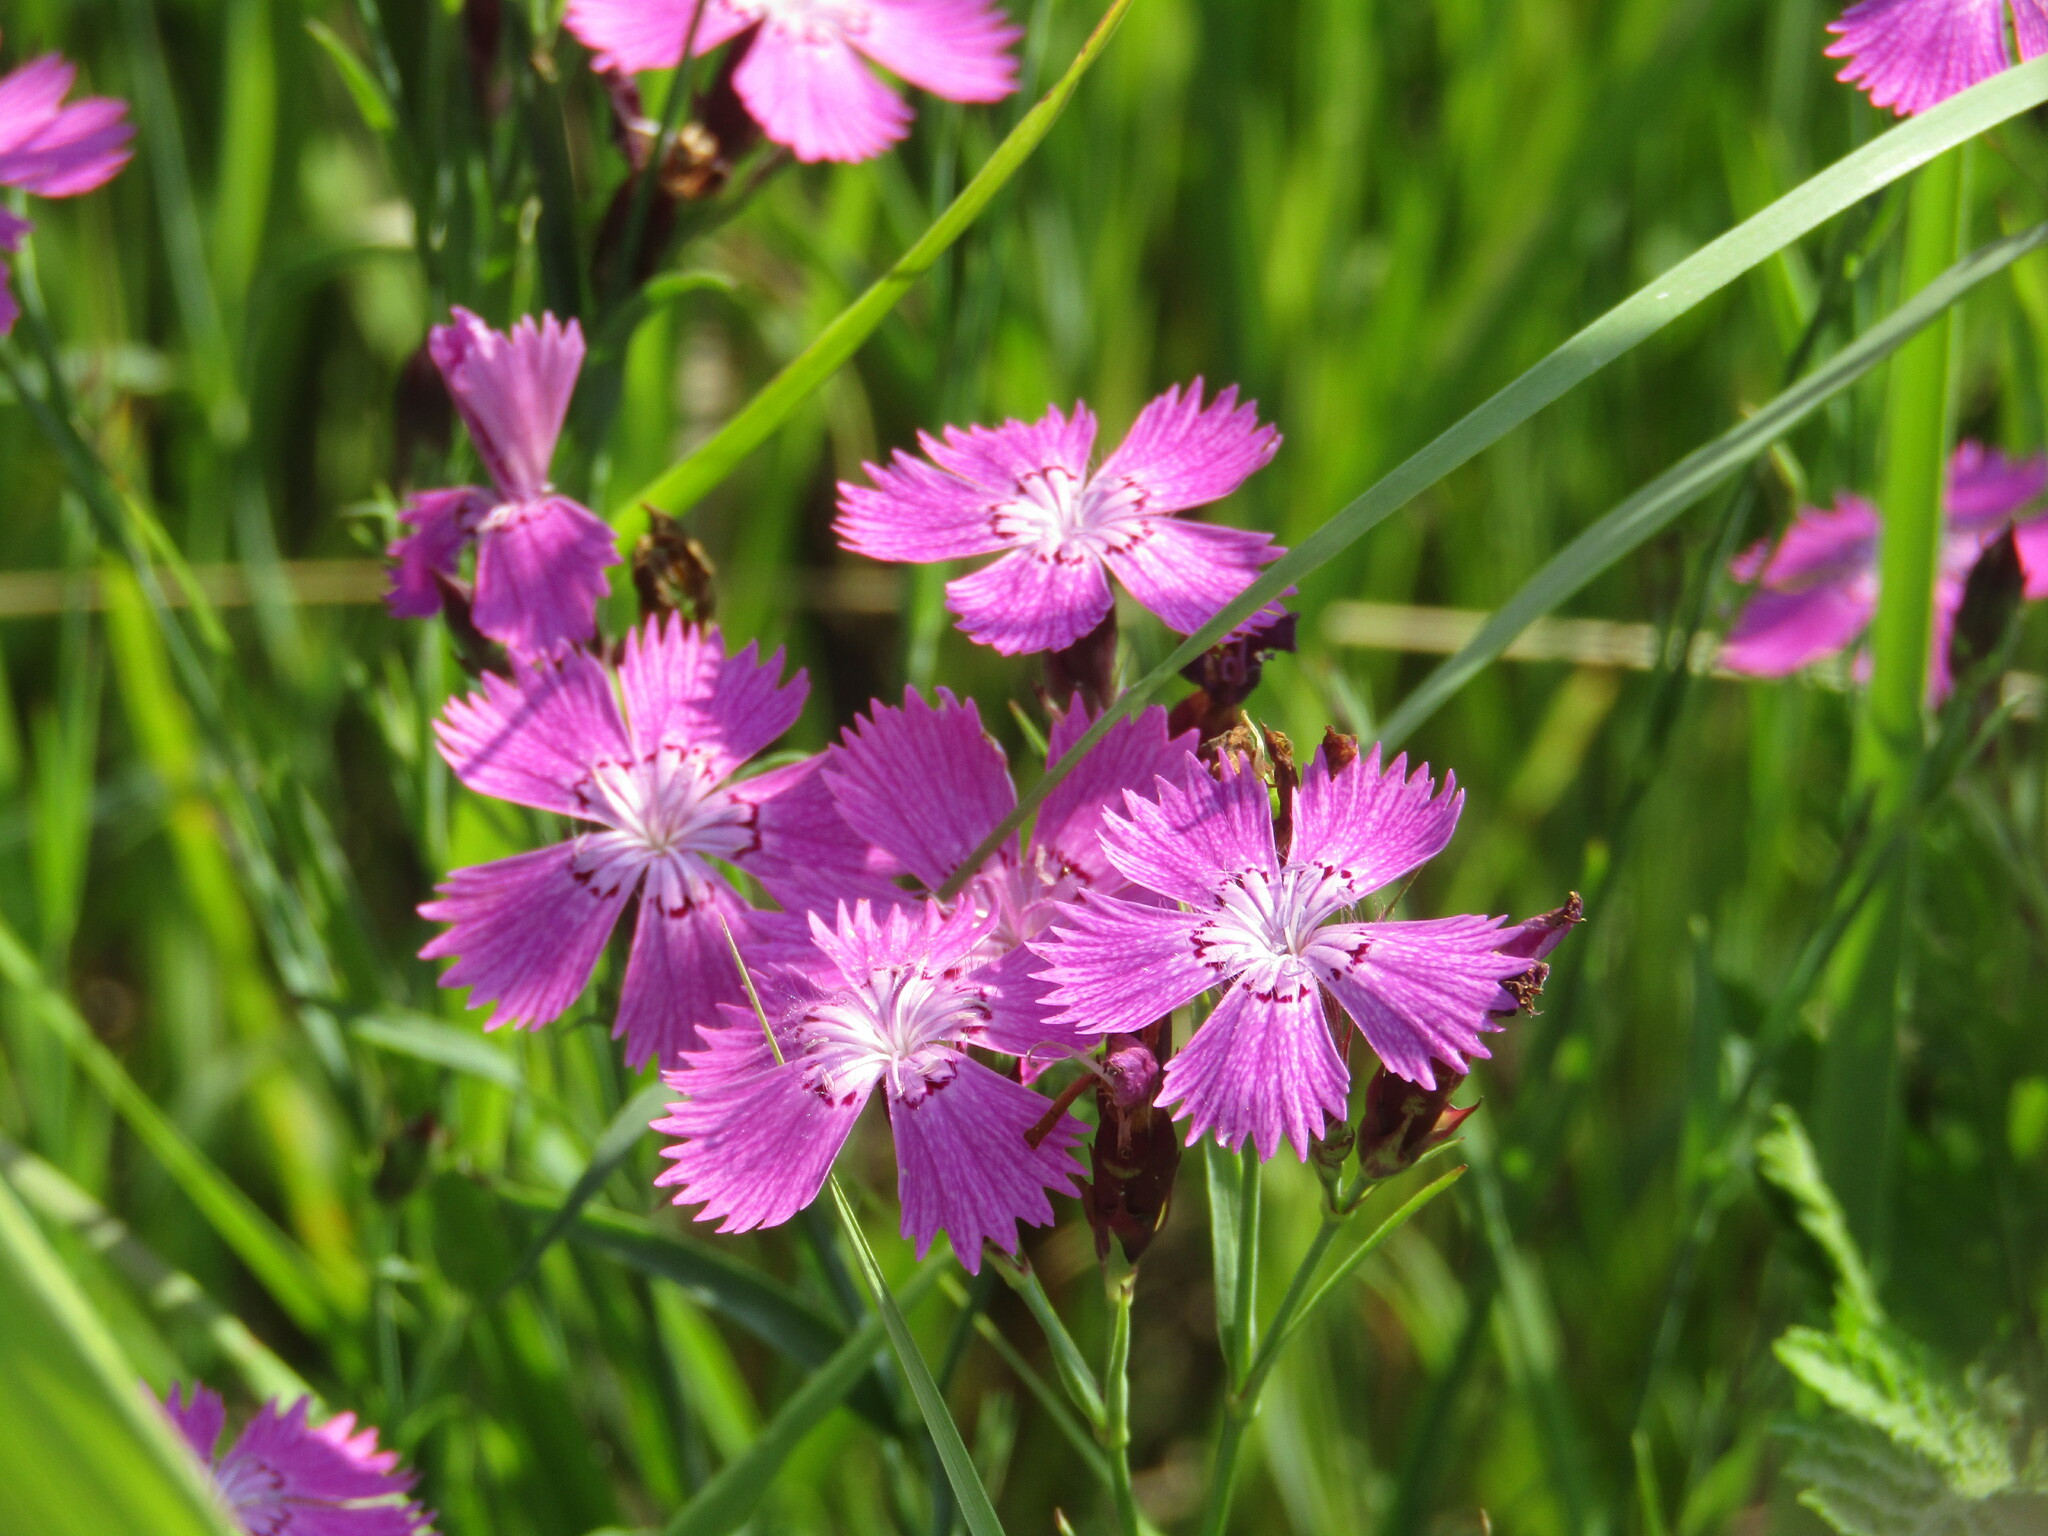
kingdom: Plantae
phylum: Tracheophyta
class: Magnoliopsida
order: Caryophyllales
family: Caryophyllaceae
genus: Dianthus
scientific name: Dianthus chinensis
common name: Rainbow pink
